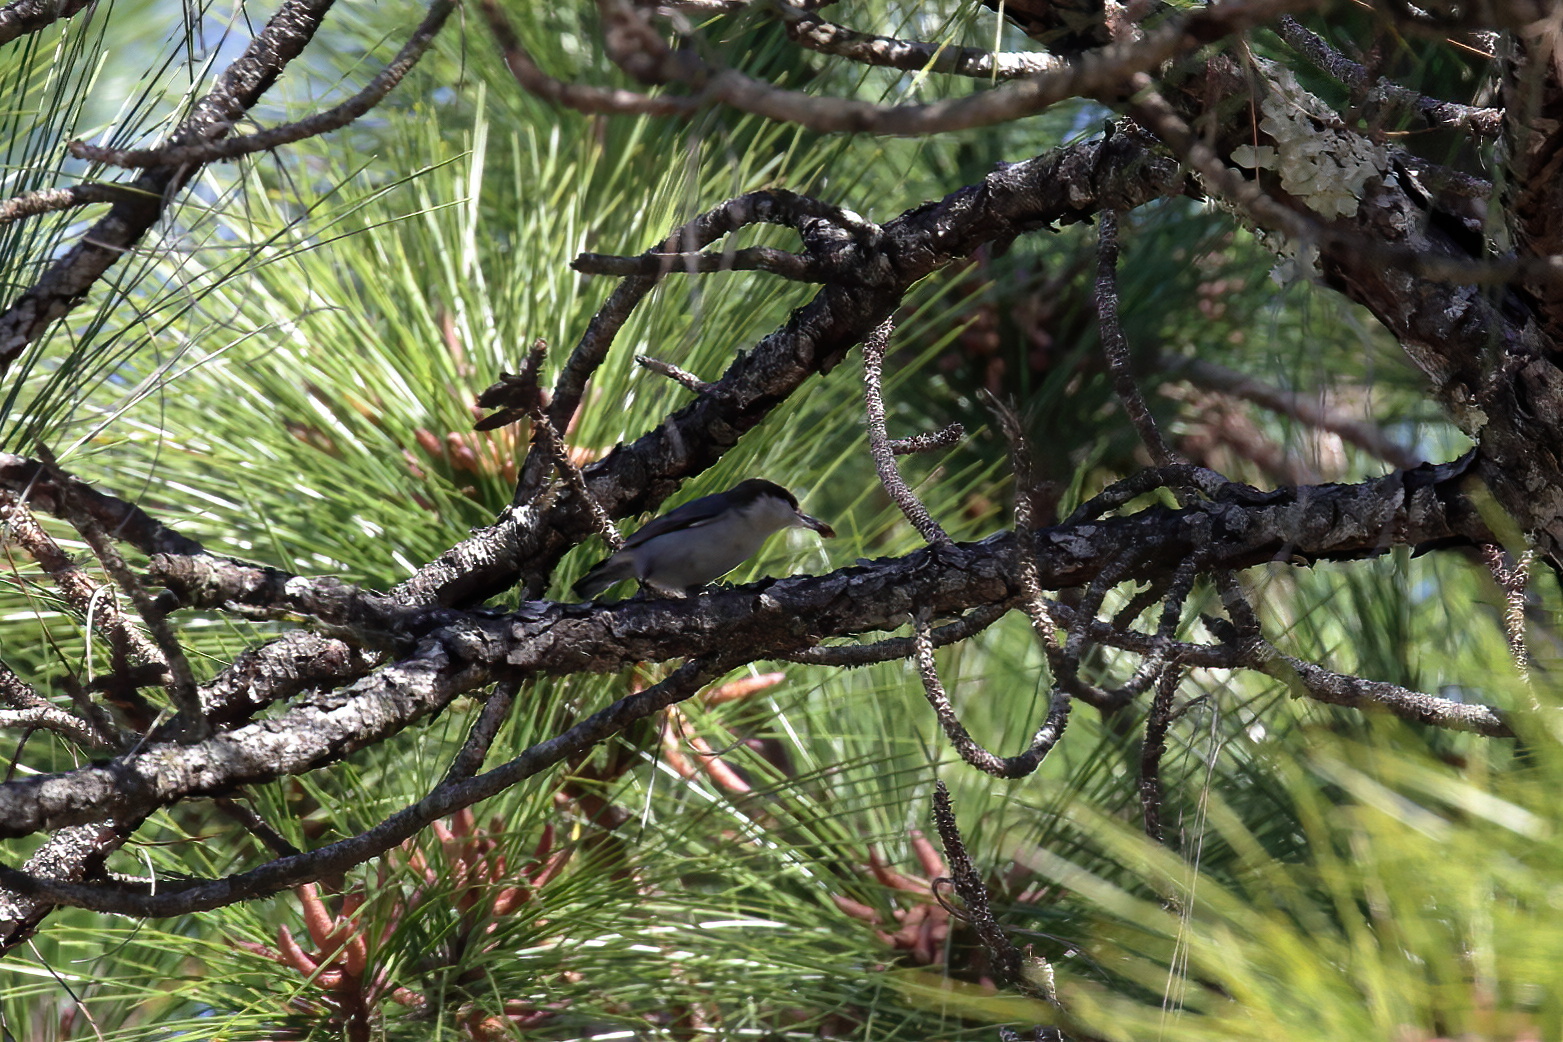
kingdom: Animalia
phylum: Chordata
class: Aves
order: Passeriformes
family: Sittidae
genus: Sitta
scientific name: Sitta pusilla
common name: Brown-headed nuthatch
